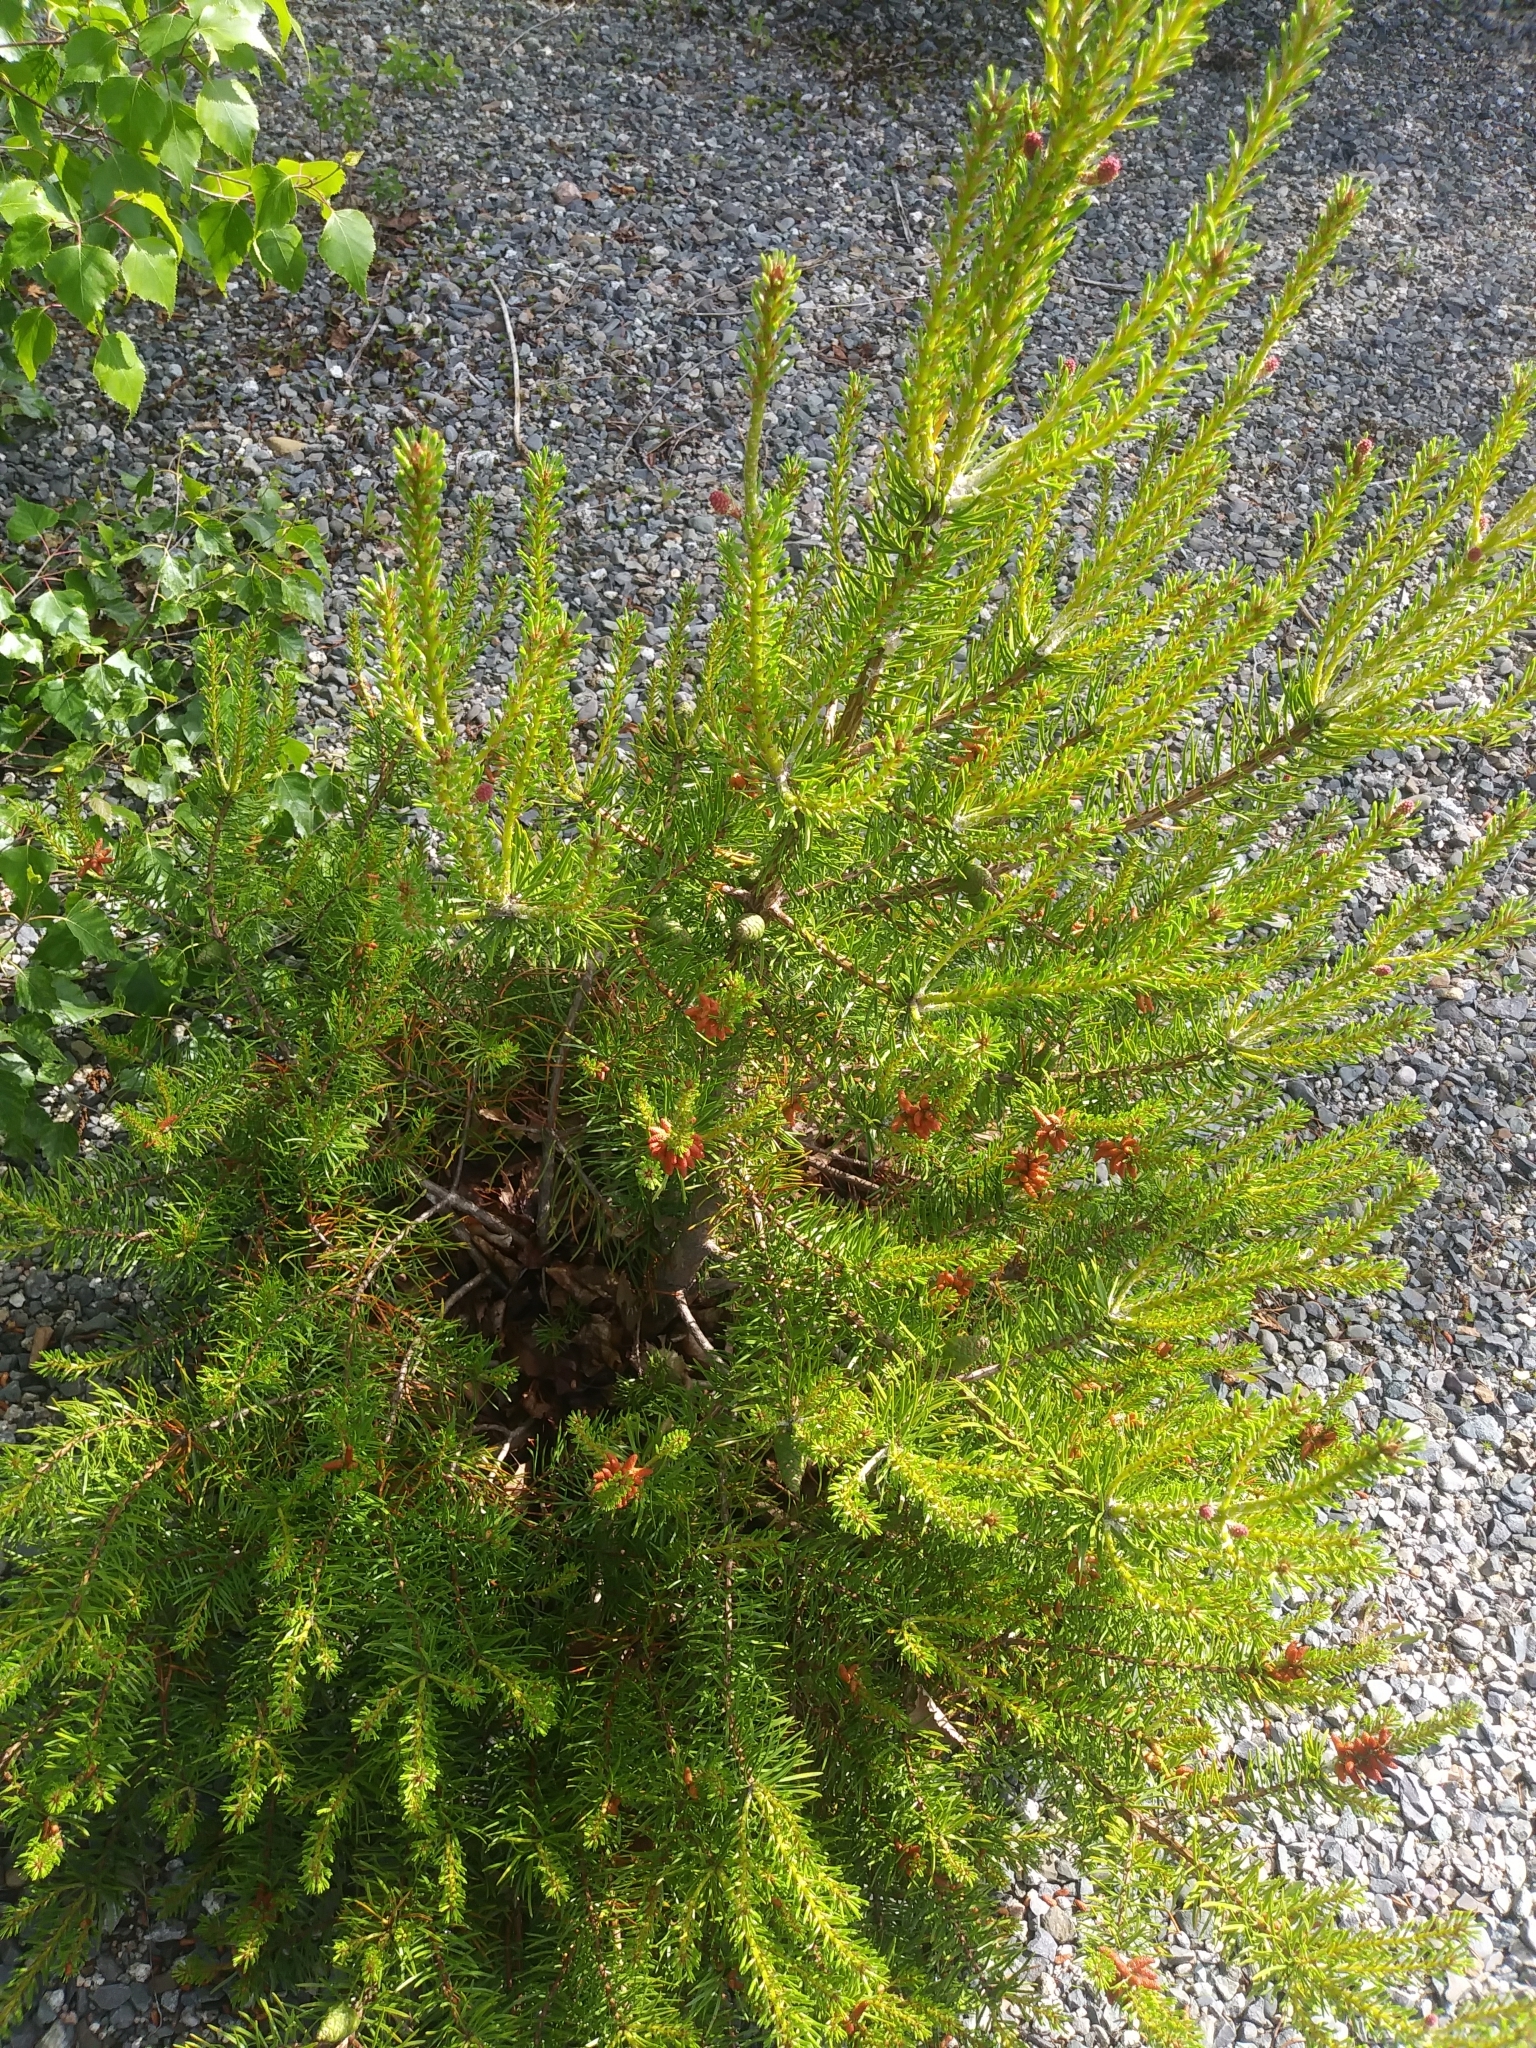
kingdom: Plantae
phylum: Tracheophyta
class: Pinopsida
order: Pinales
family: Pinaceae
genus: Pinus
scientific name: Pinus banksiana
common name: Jack pine
